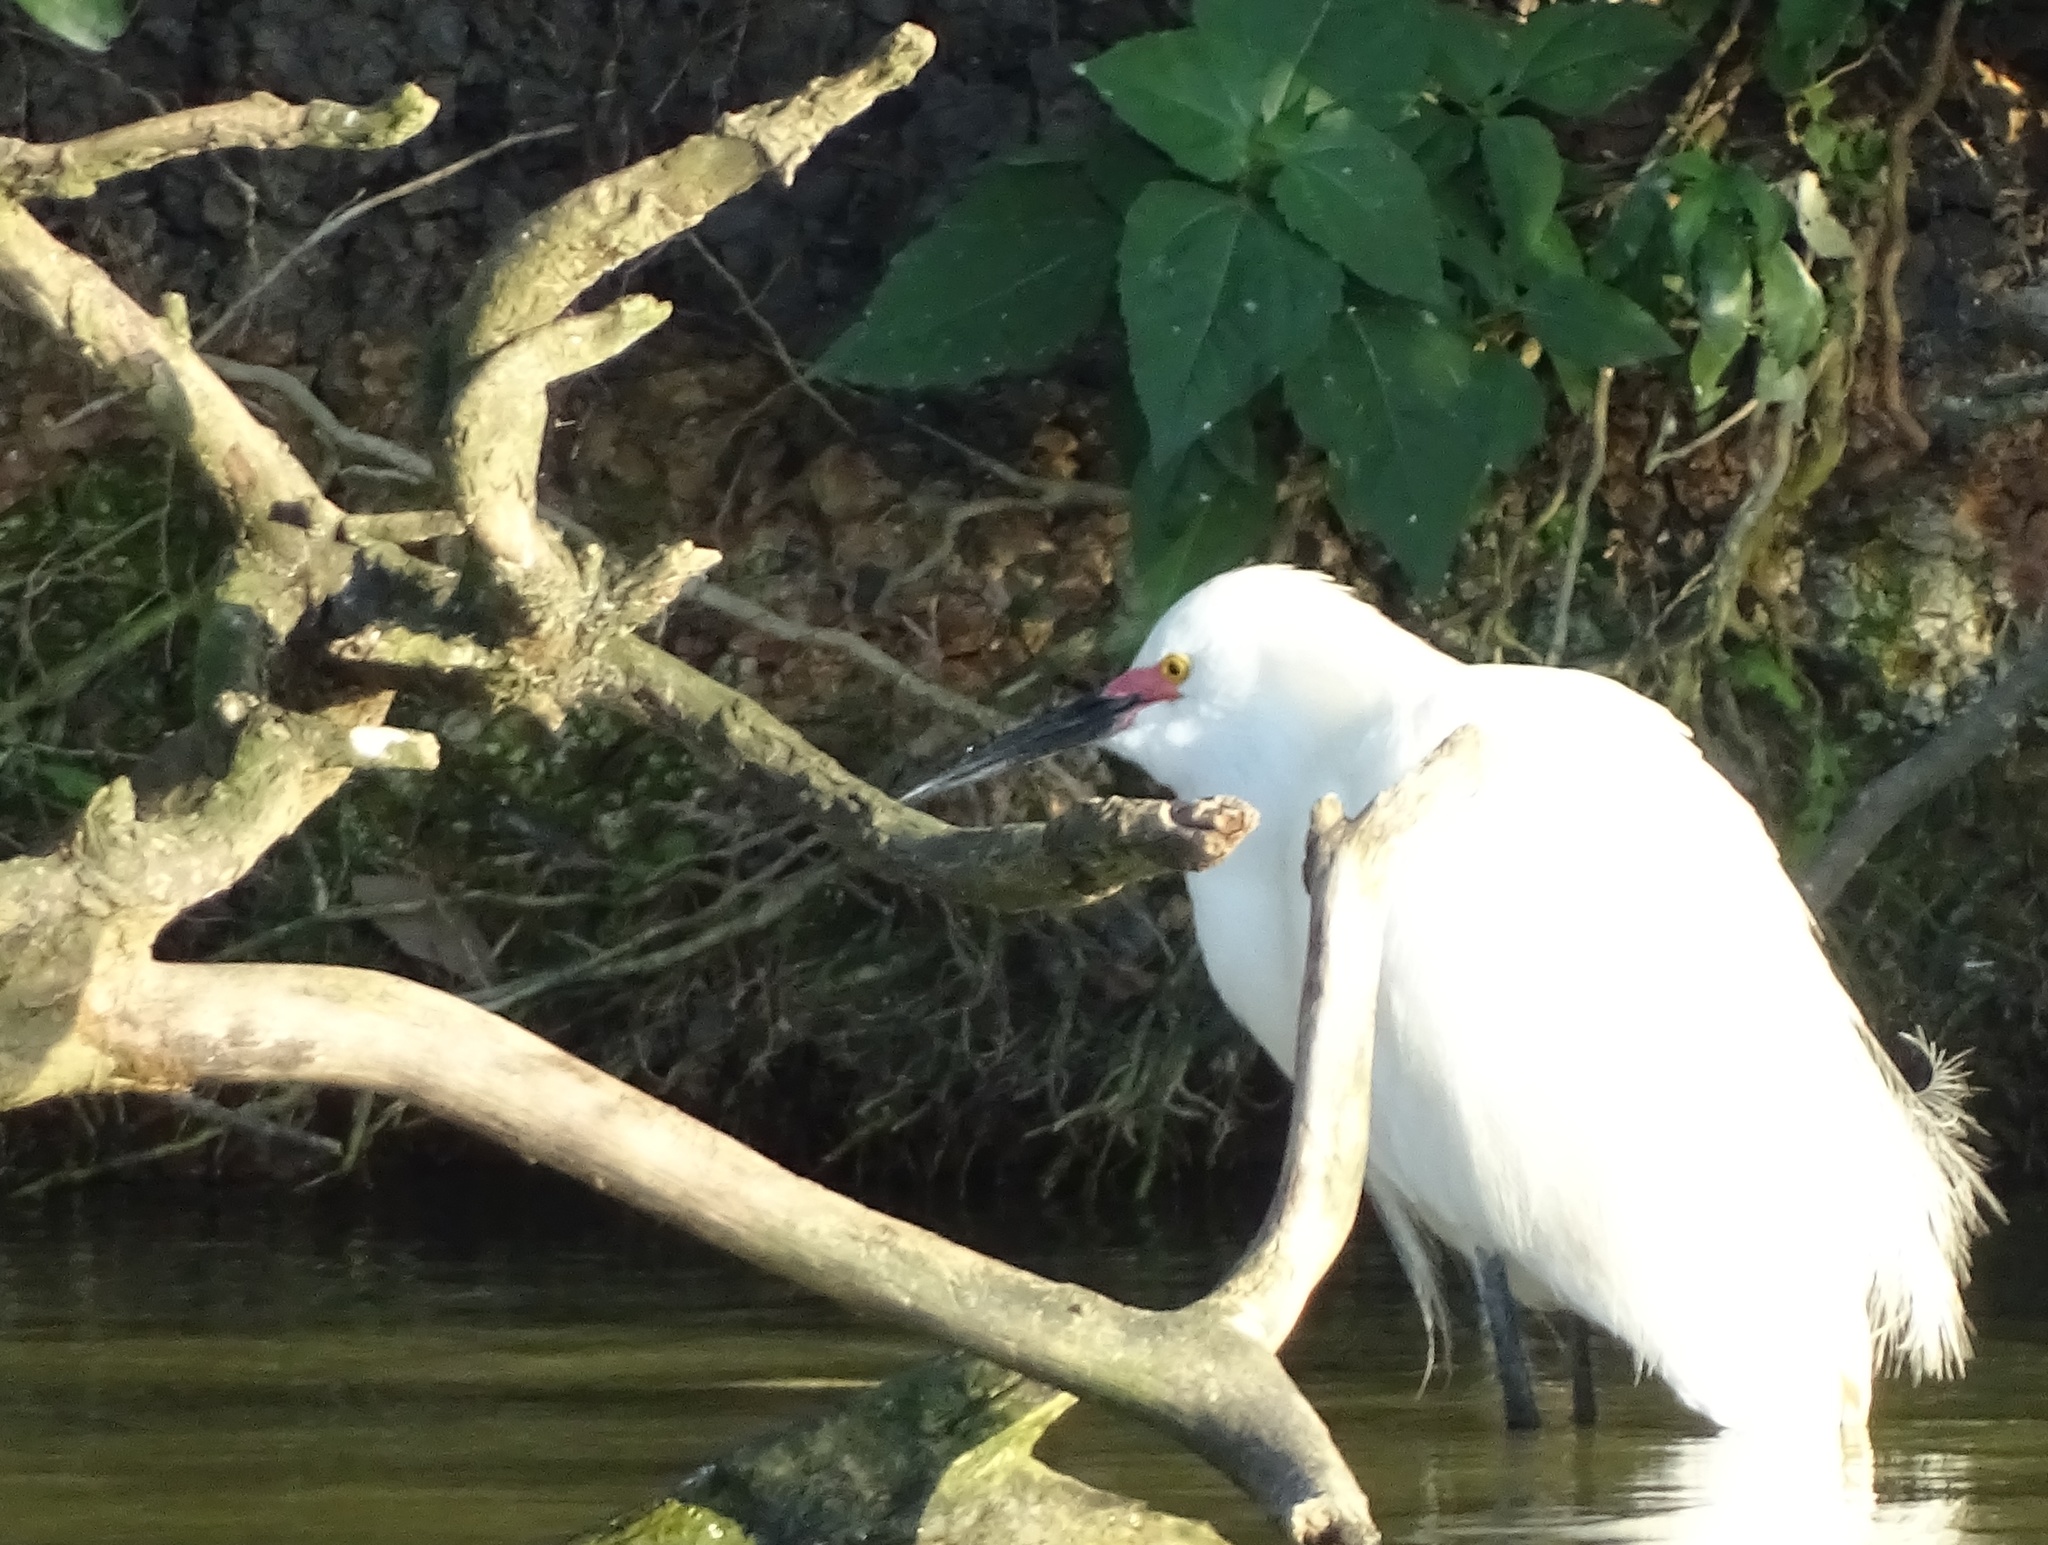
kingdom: Animalia
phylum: Chordata
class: Aves
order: Pelecaniformes
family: Ardeidae
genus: Egretta
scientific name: Egretta thula
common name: Snowy egret
